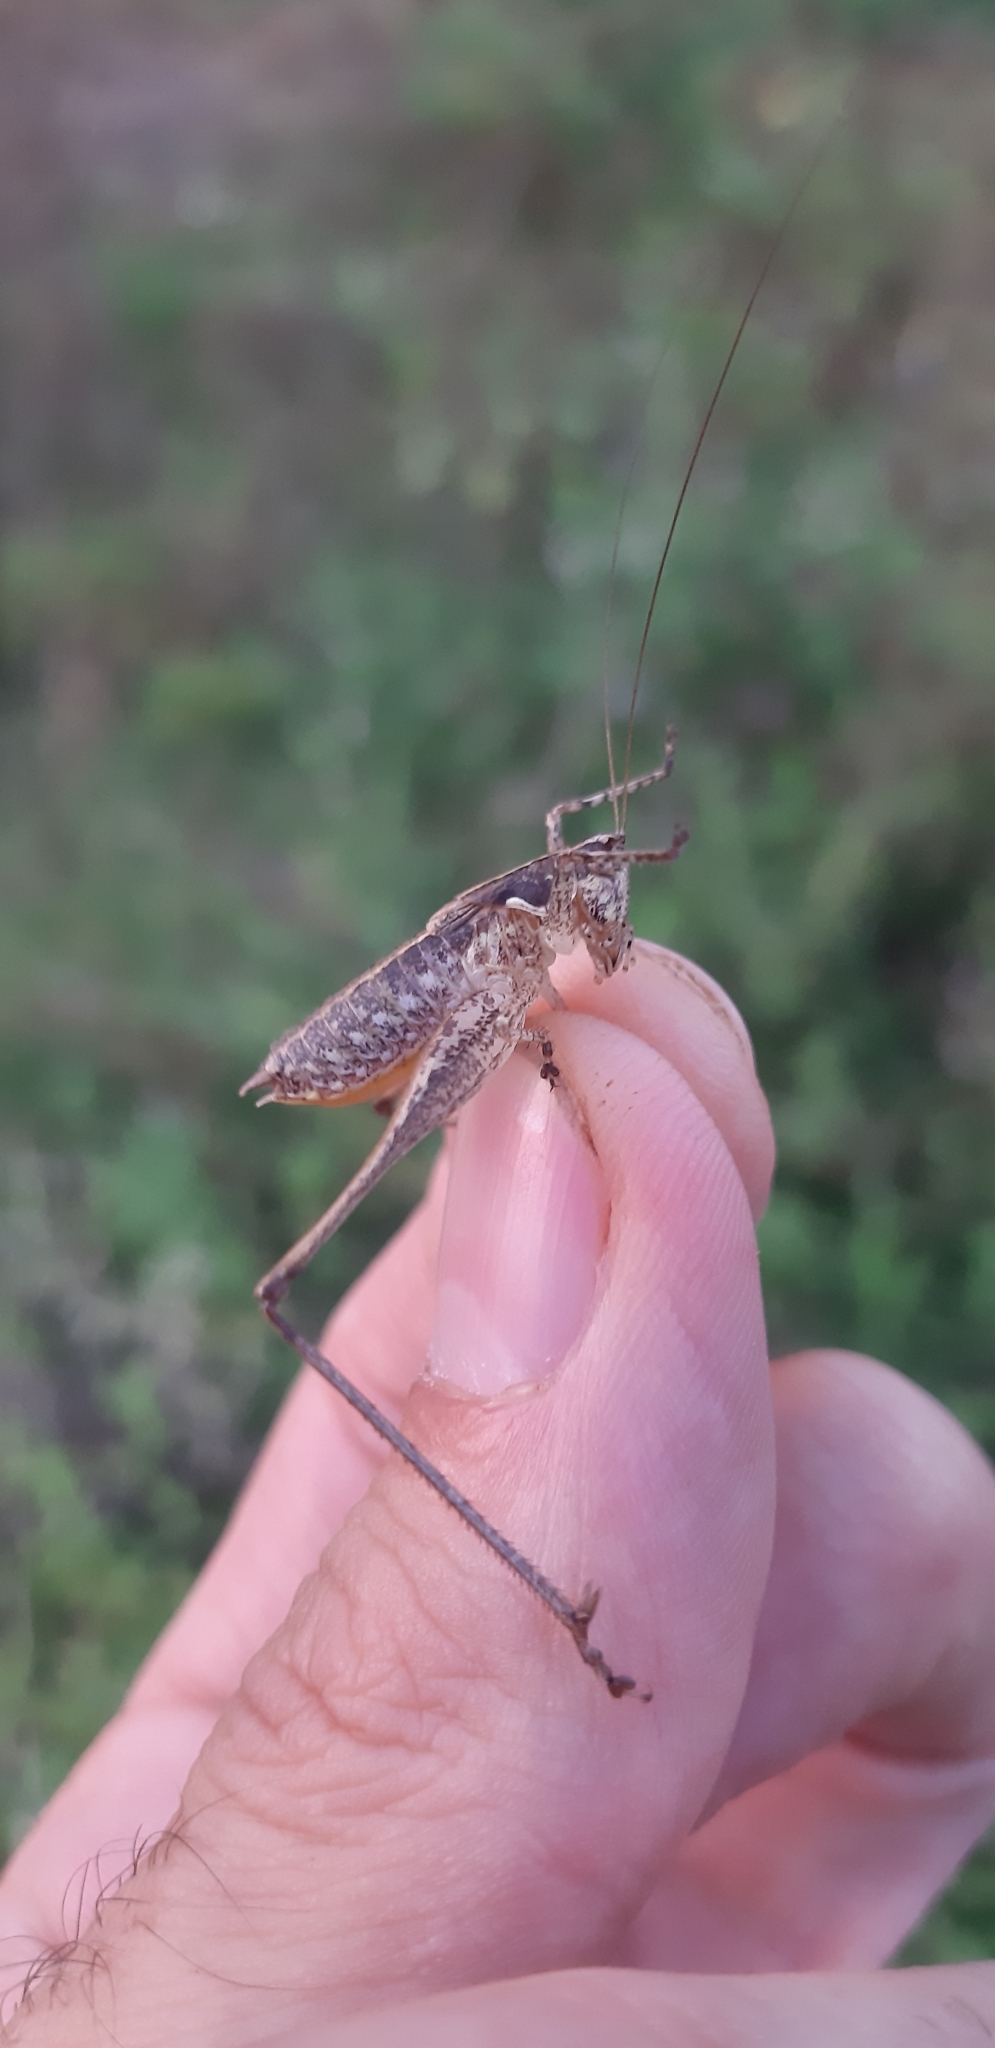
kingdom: Animalia
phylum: Arthropoda
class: Insecta
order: Orthoptera
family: Tettigoniidae
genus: Rhacocleis
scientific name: Rhacocleis germanica
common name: Mediterranean bush-cricket
